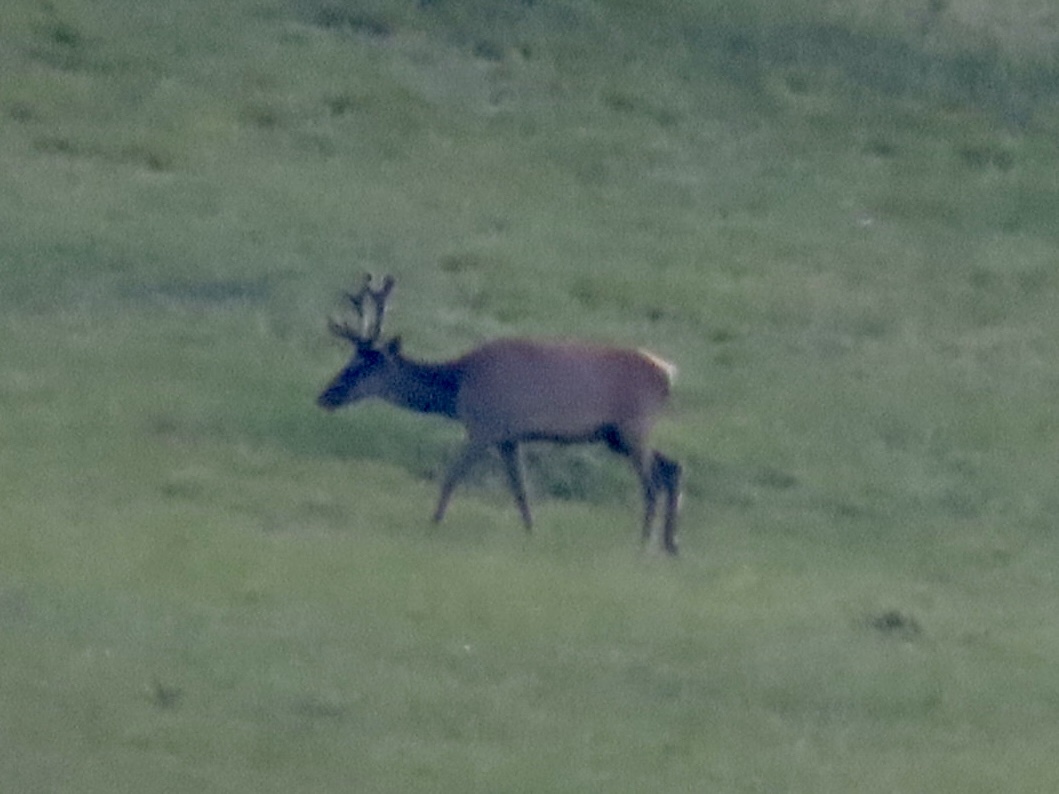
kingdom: Animalia
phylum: Chordata
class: Mammalia
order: Artiodactyla
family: Cervidae
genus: Cervus
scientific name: Cervus elaphus
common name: Red deer
